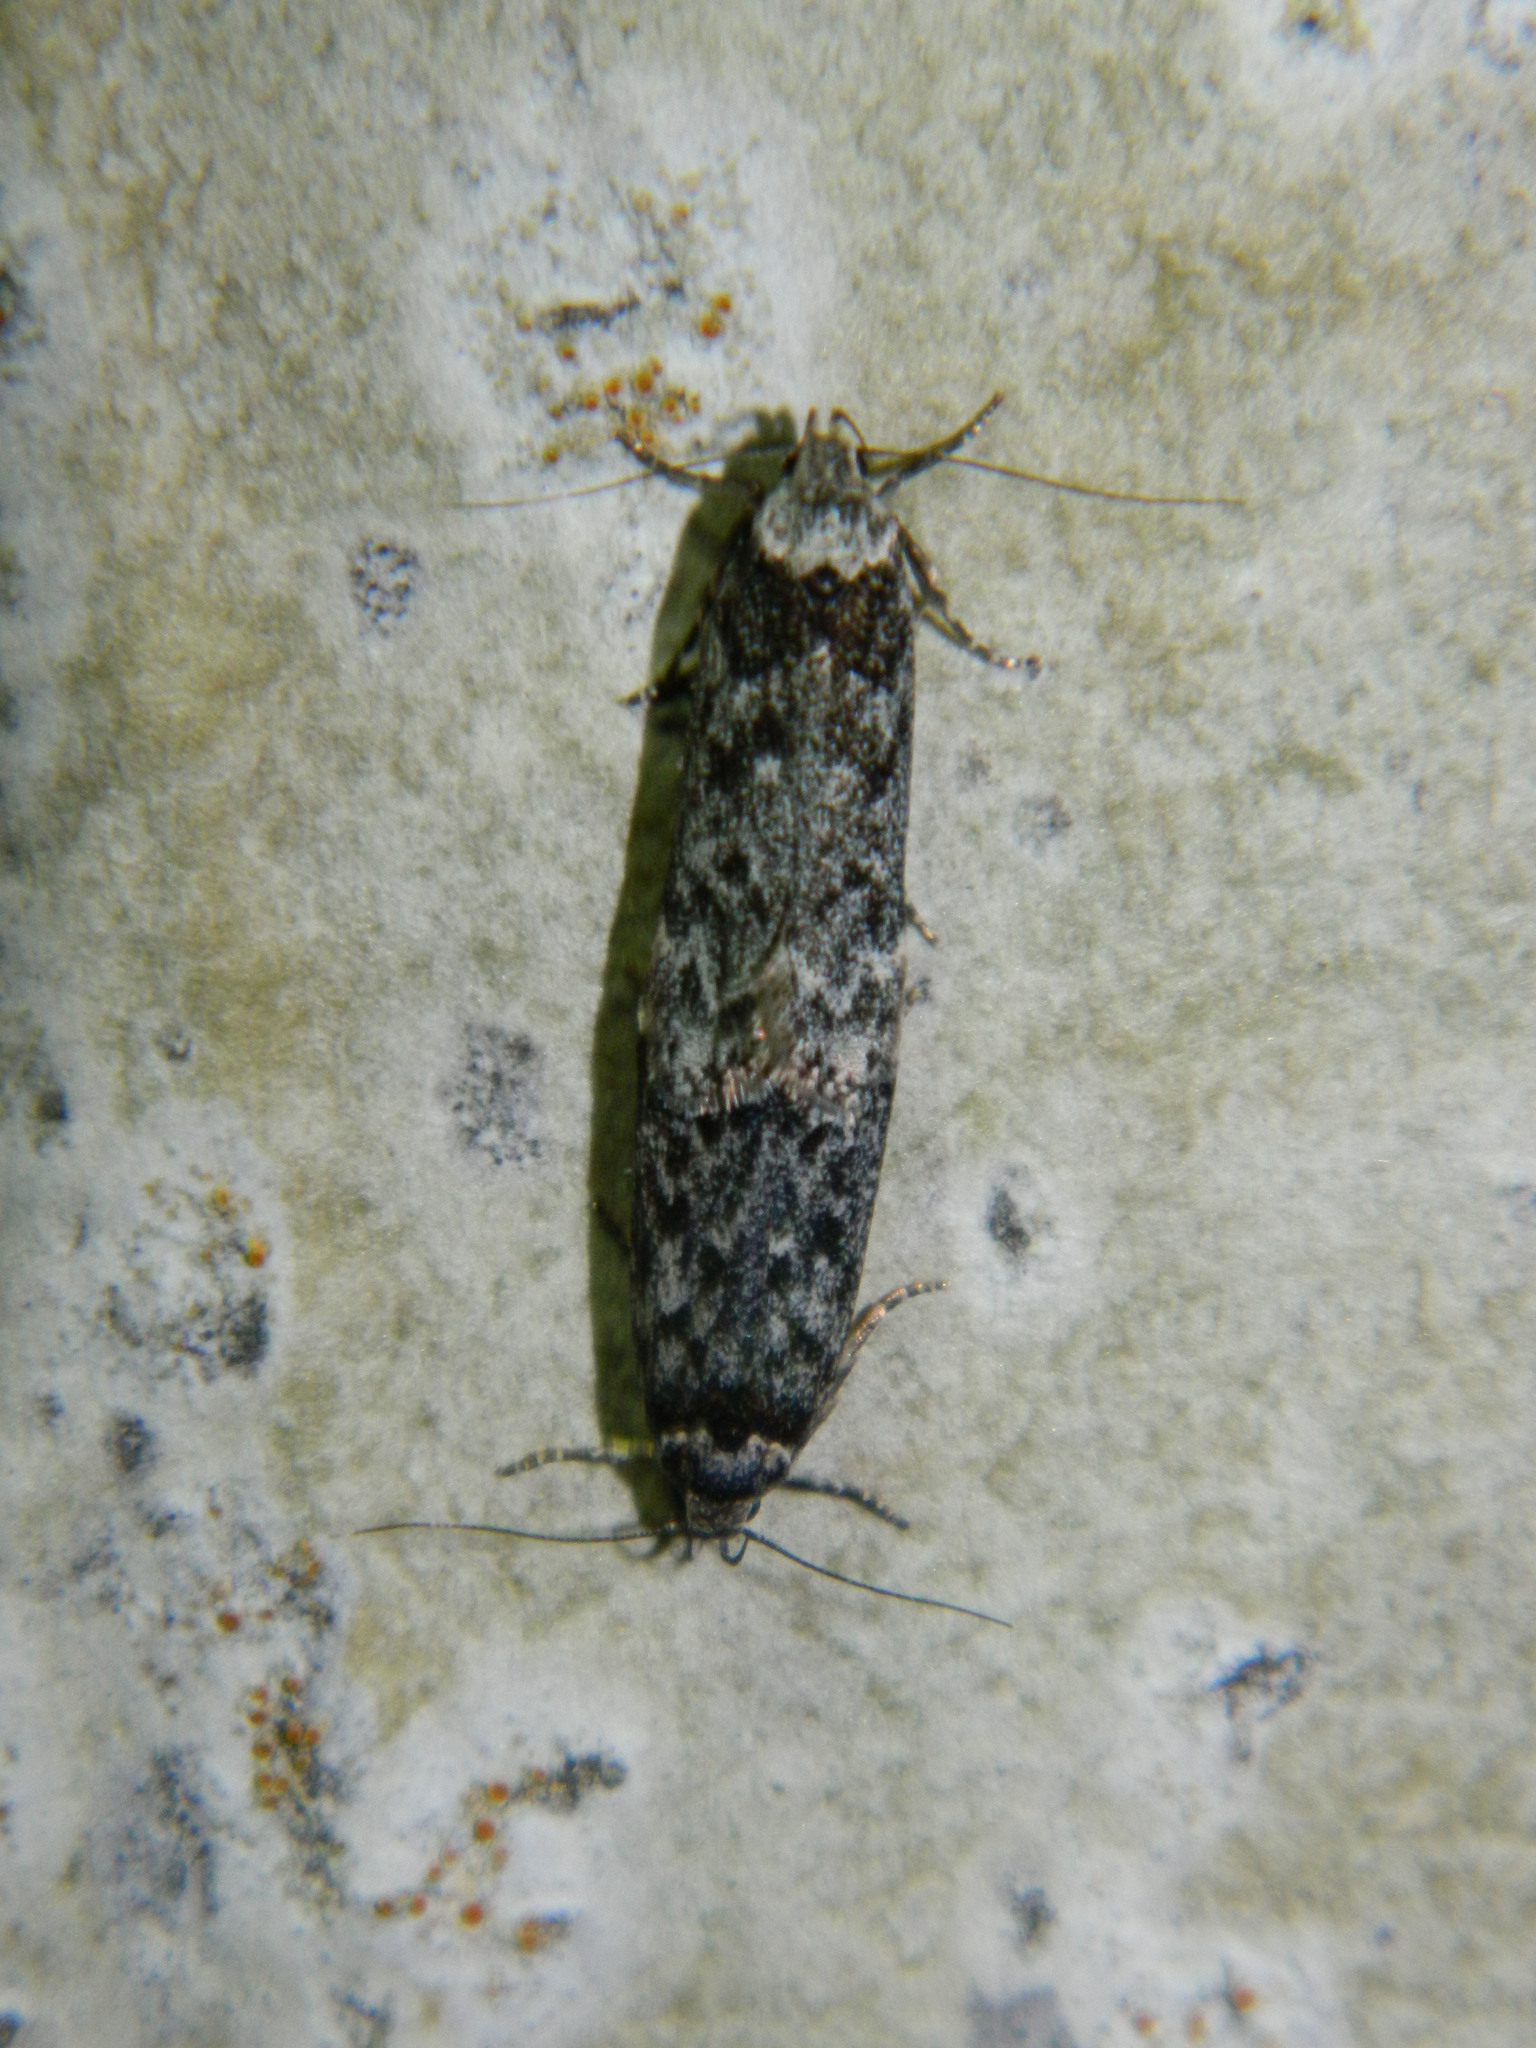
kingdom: Animalia
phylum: Arthropoda
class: Insecta
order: Lepidoptera
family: Gelechiidae
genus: Anacampsis
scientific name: Anacampsis niveopulvella
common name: Pale-headed aspen leafroller moth
